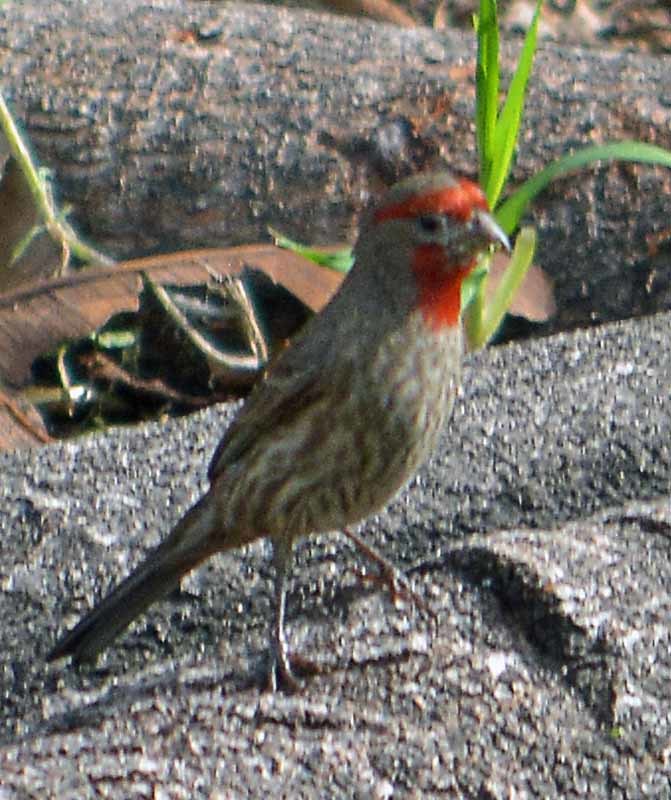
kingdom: Animalia
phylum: Chordata
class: Aves
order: Passeriformes
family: Fringillidae
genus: Haemorhous
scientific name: Haemorhous mexicanus
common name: House finch
